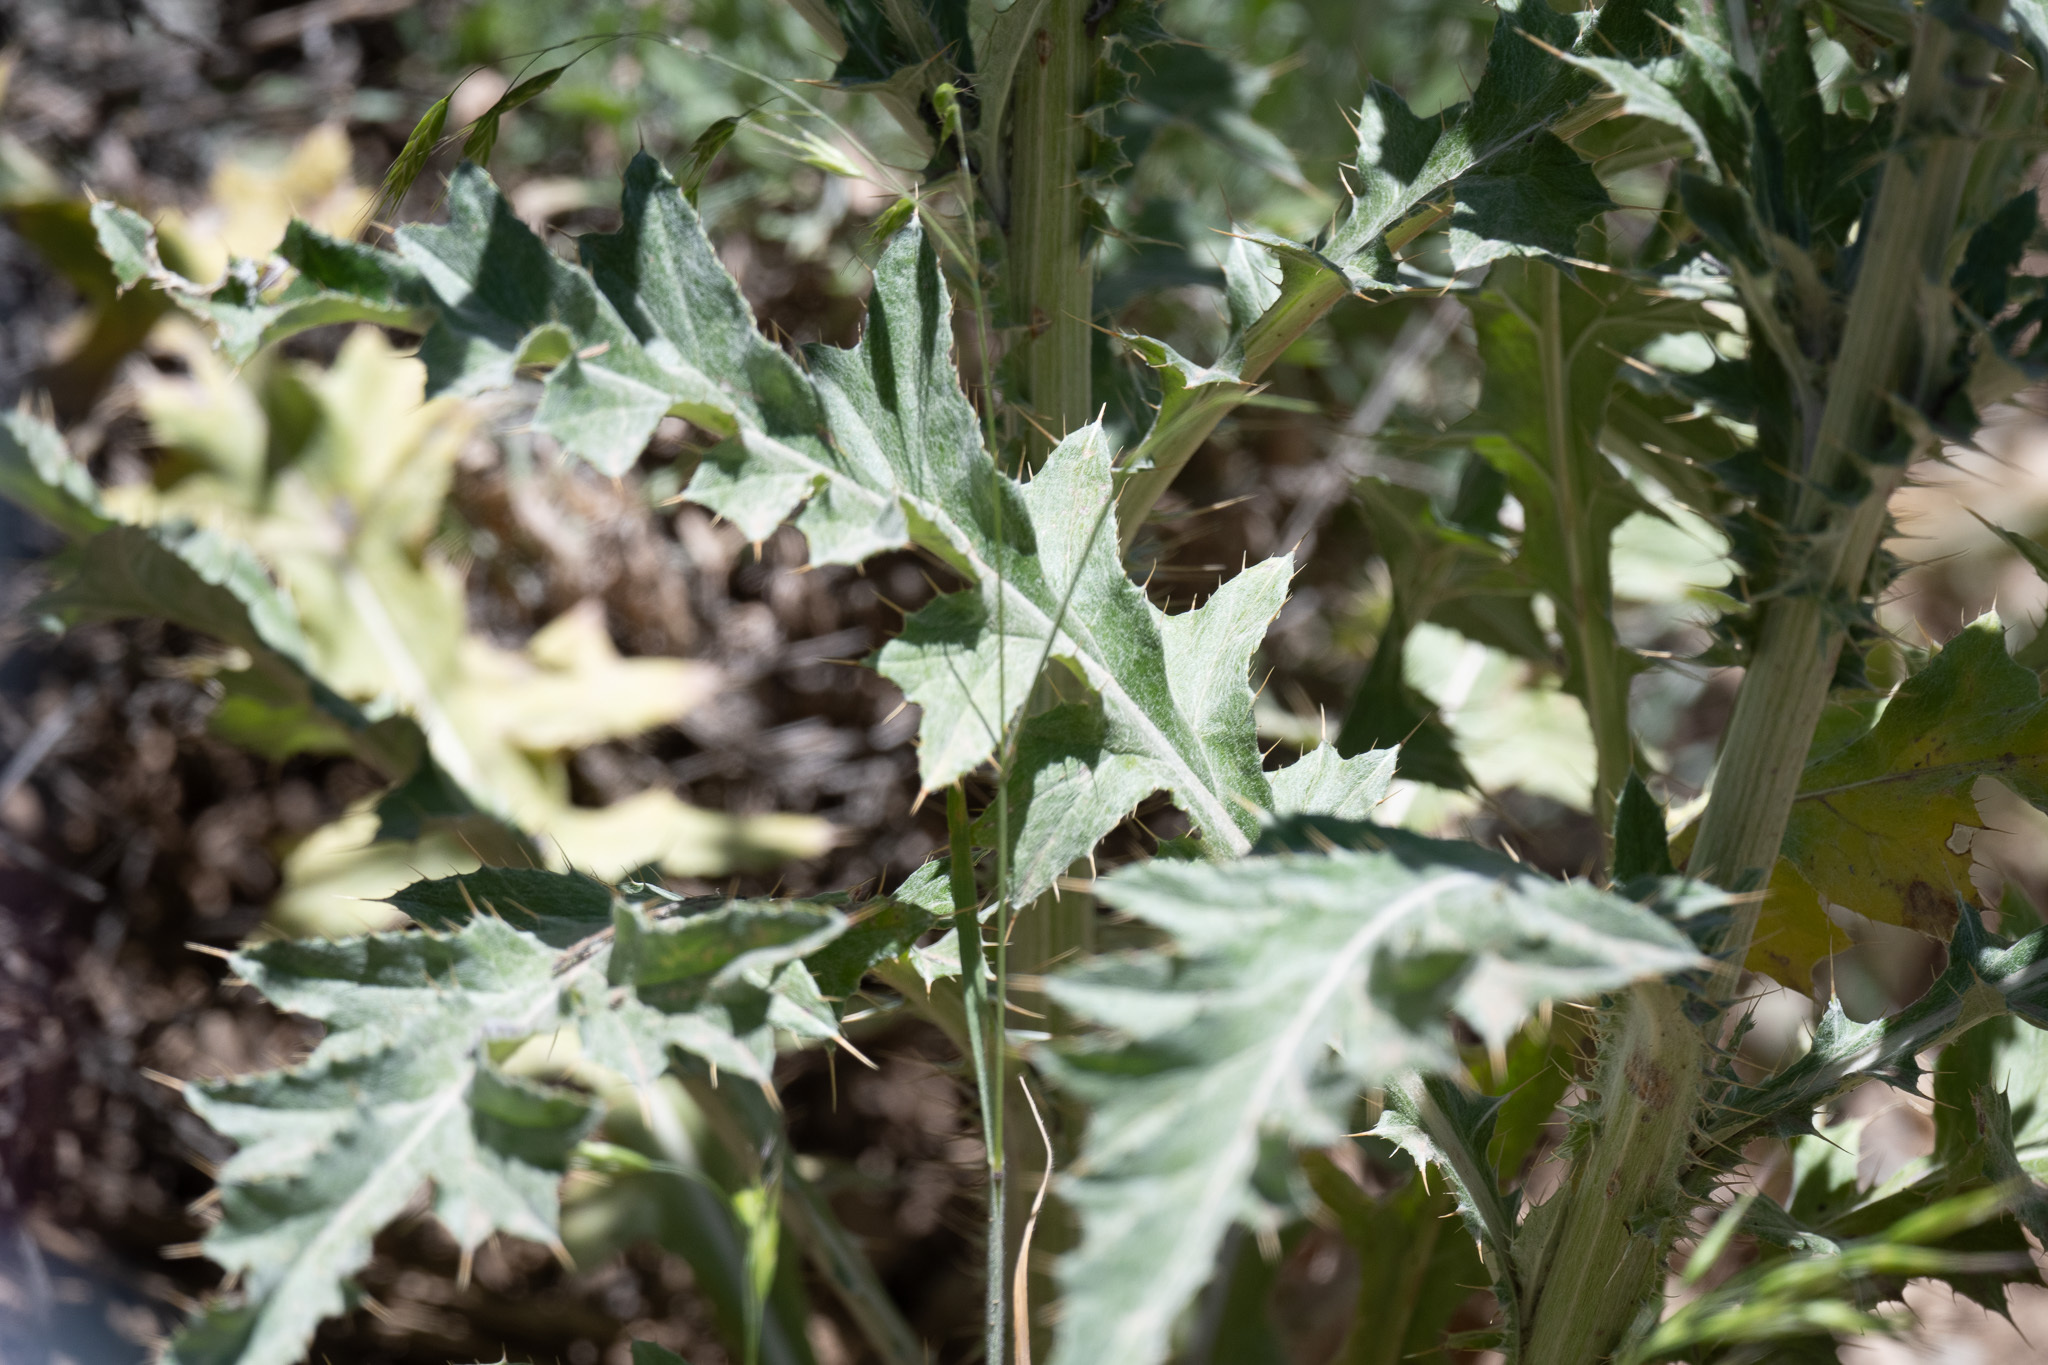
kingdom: Plantae
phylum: Tracheophyta
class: Magnoliopsida
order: Asterales
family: Asteraceae
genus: Cirsium
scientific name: Cirsium undulatum
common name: Pasture thistle
